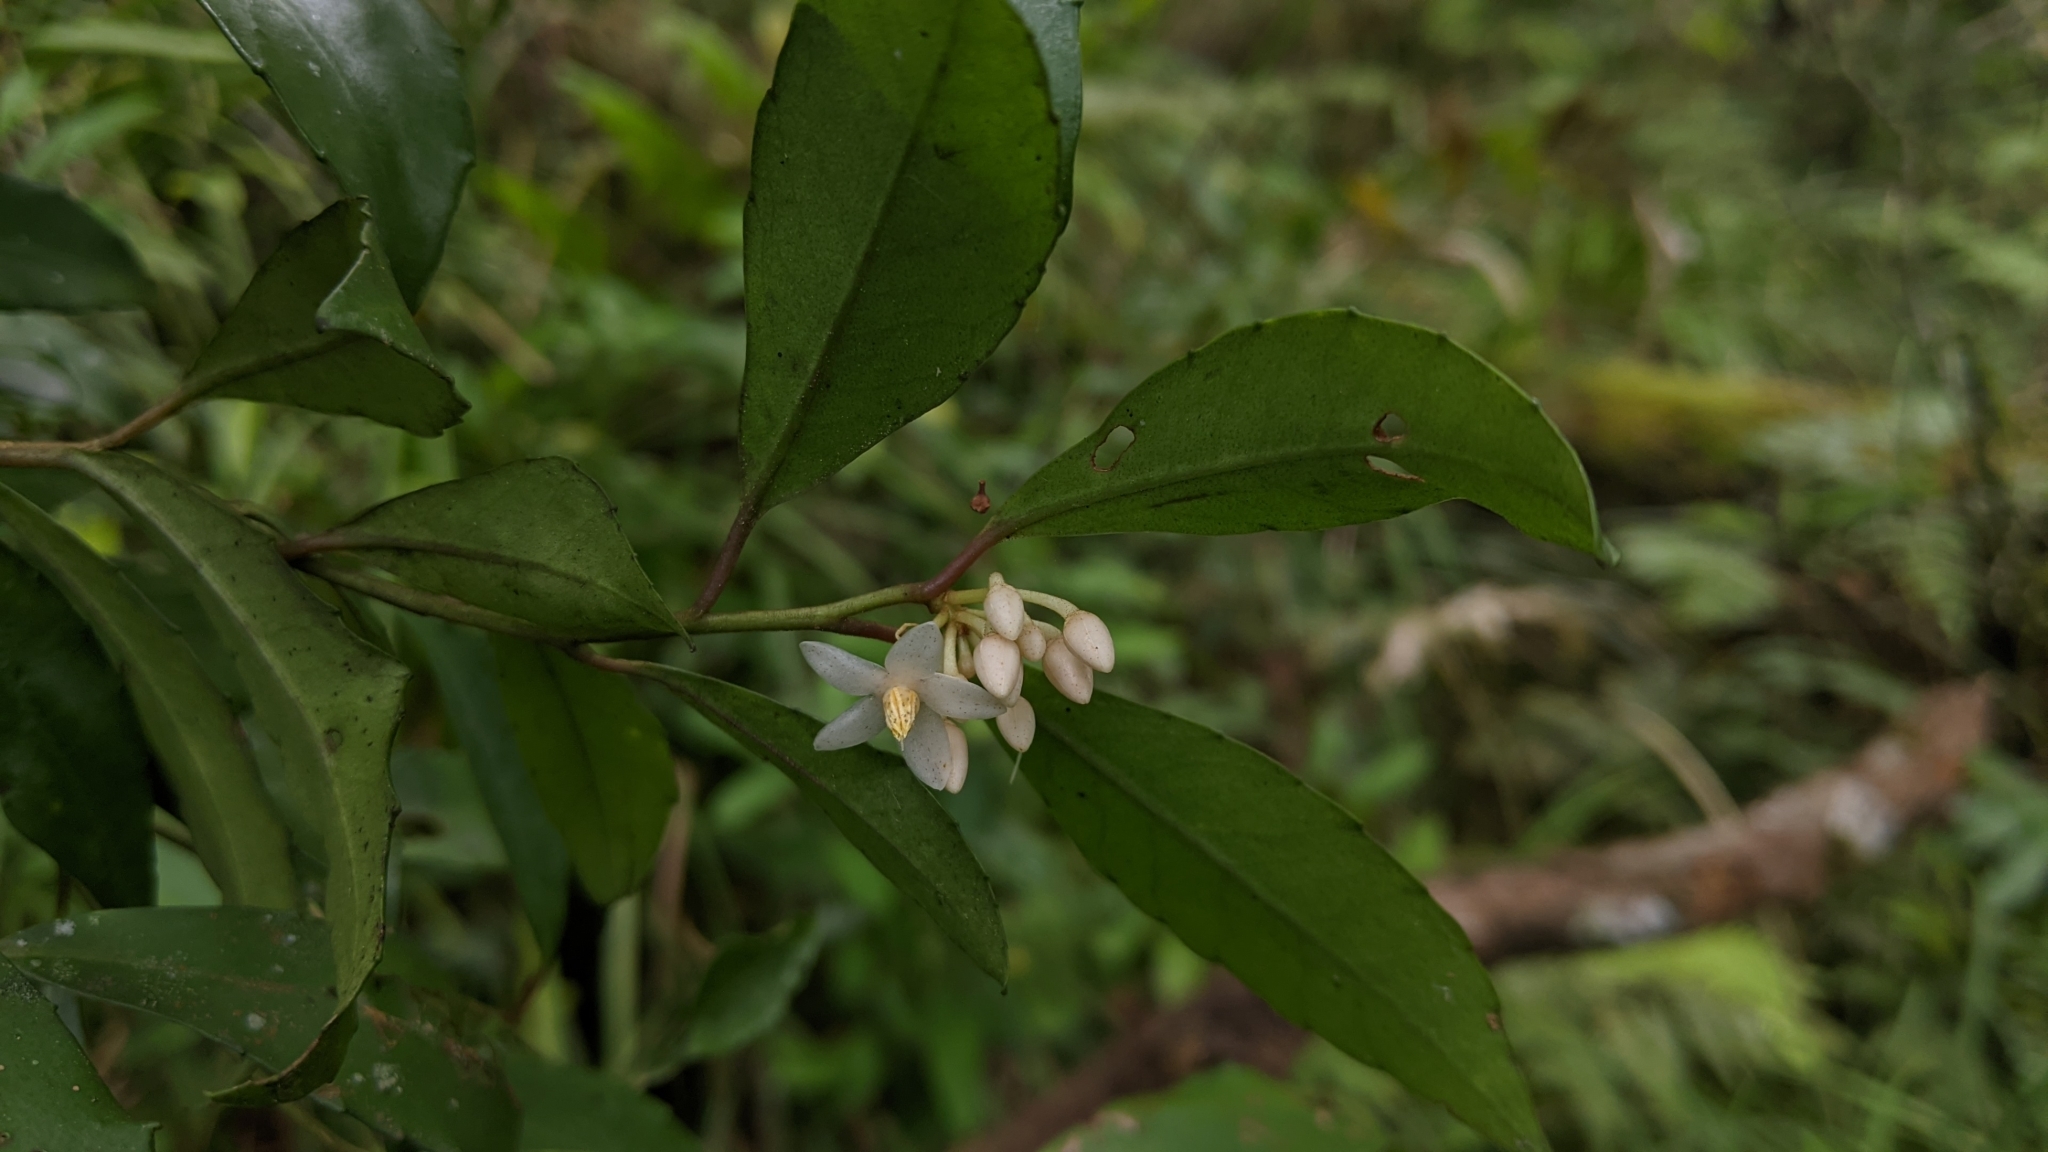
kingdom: Plantae
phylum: Tracheophyta
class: Magnoliopsida
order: Ericales
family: Primulaceae
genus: Ardisia
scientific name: Ardisia cornudentata
